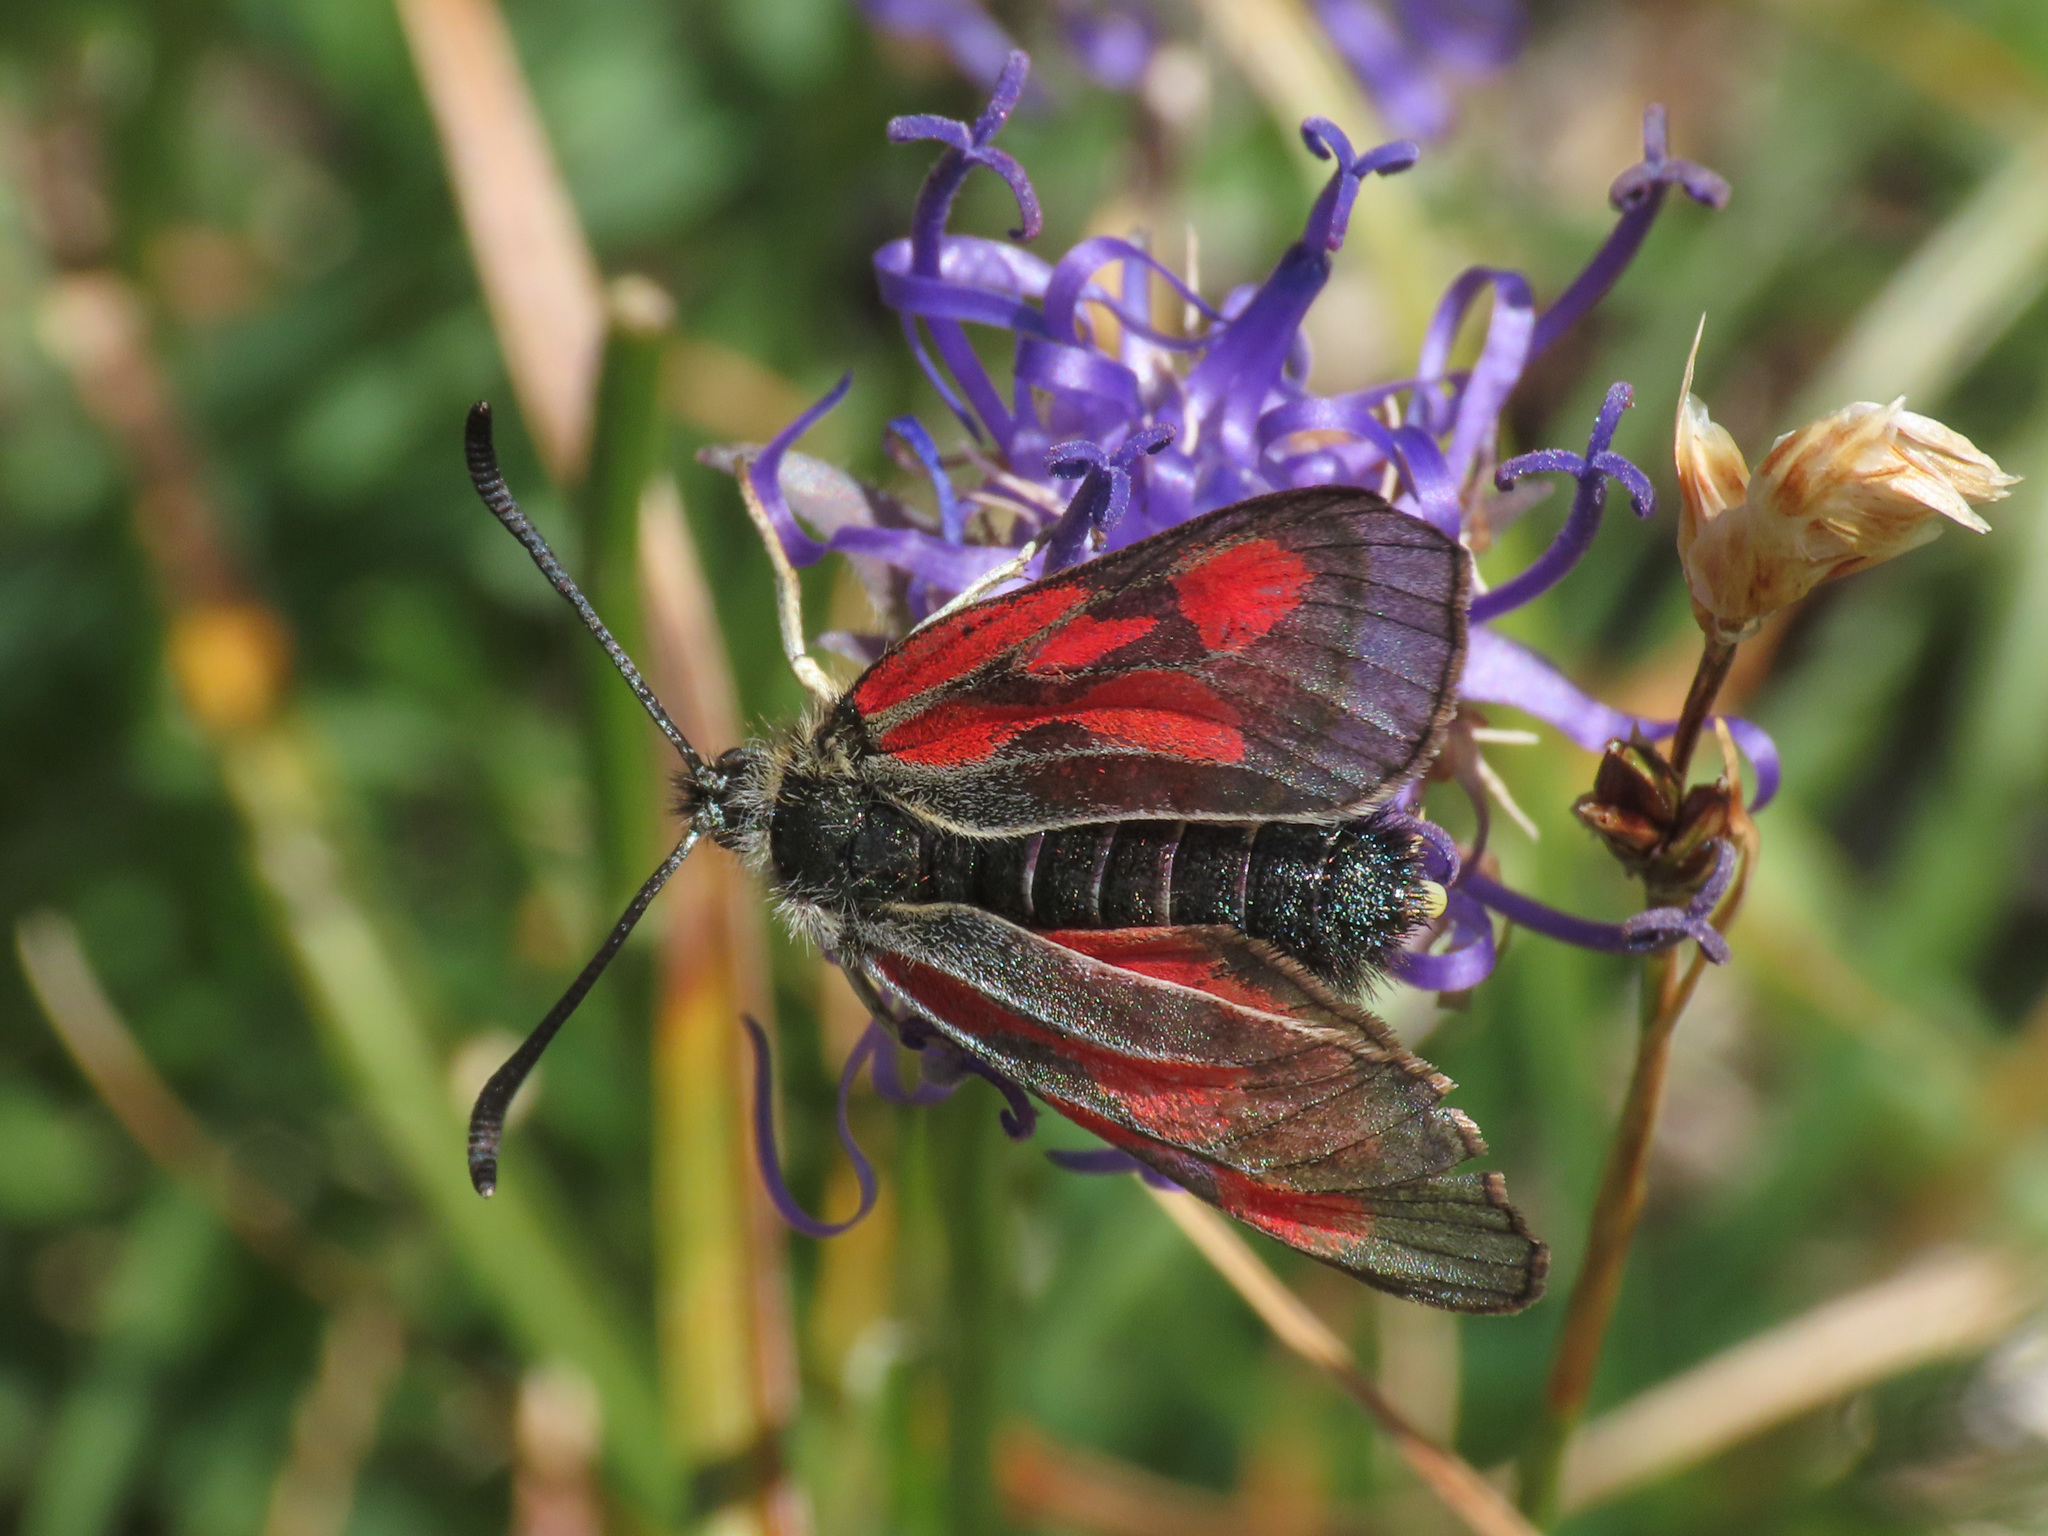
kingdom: Animalia
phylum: Arthropoda
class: Insecta
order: Lepidoptera
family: Zygaenidae
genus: Zygaena
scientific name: Zygaena exulans
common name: Scotch burnet
